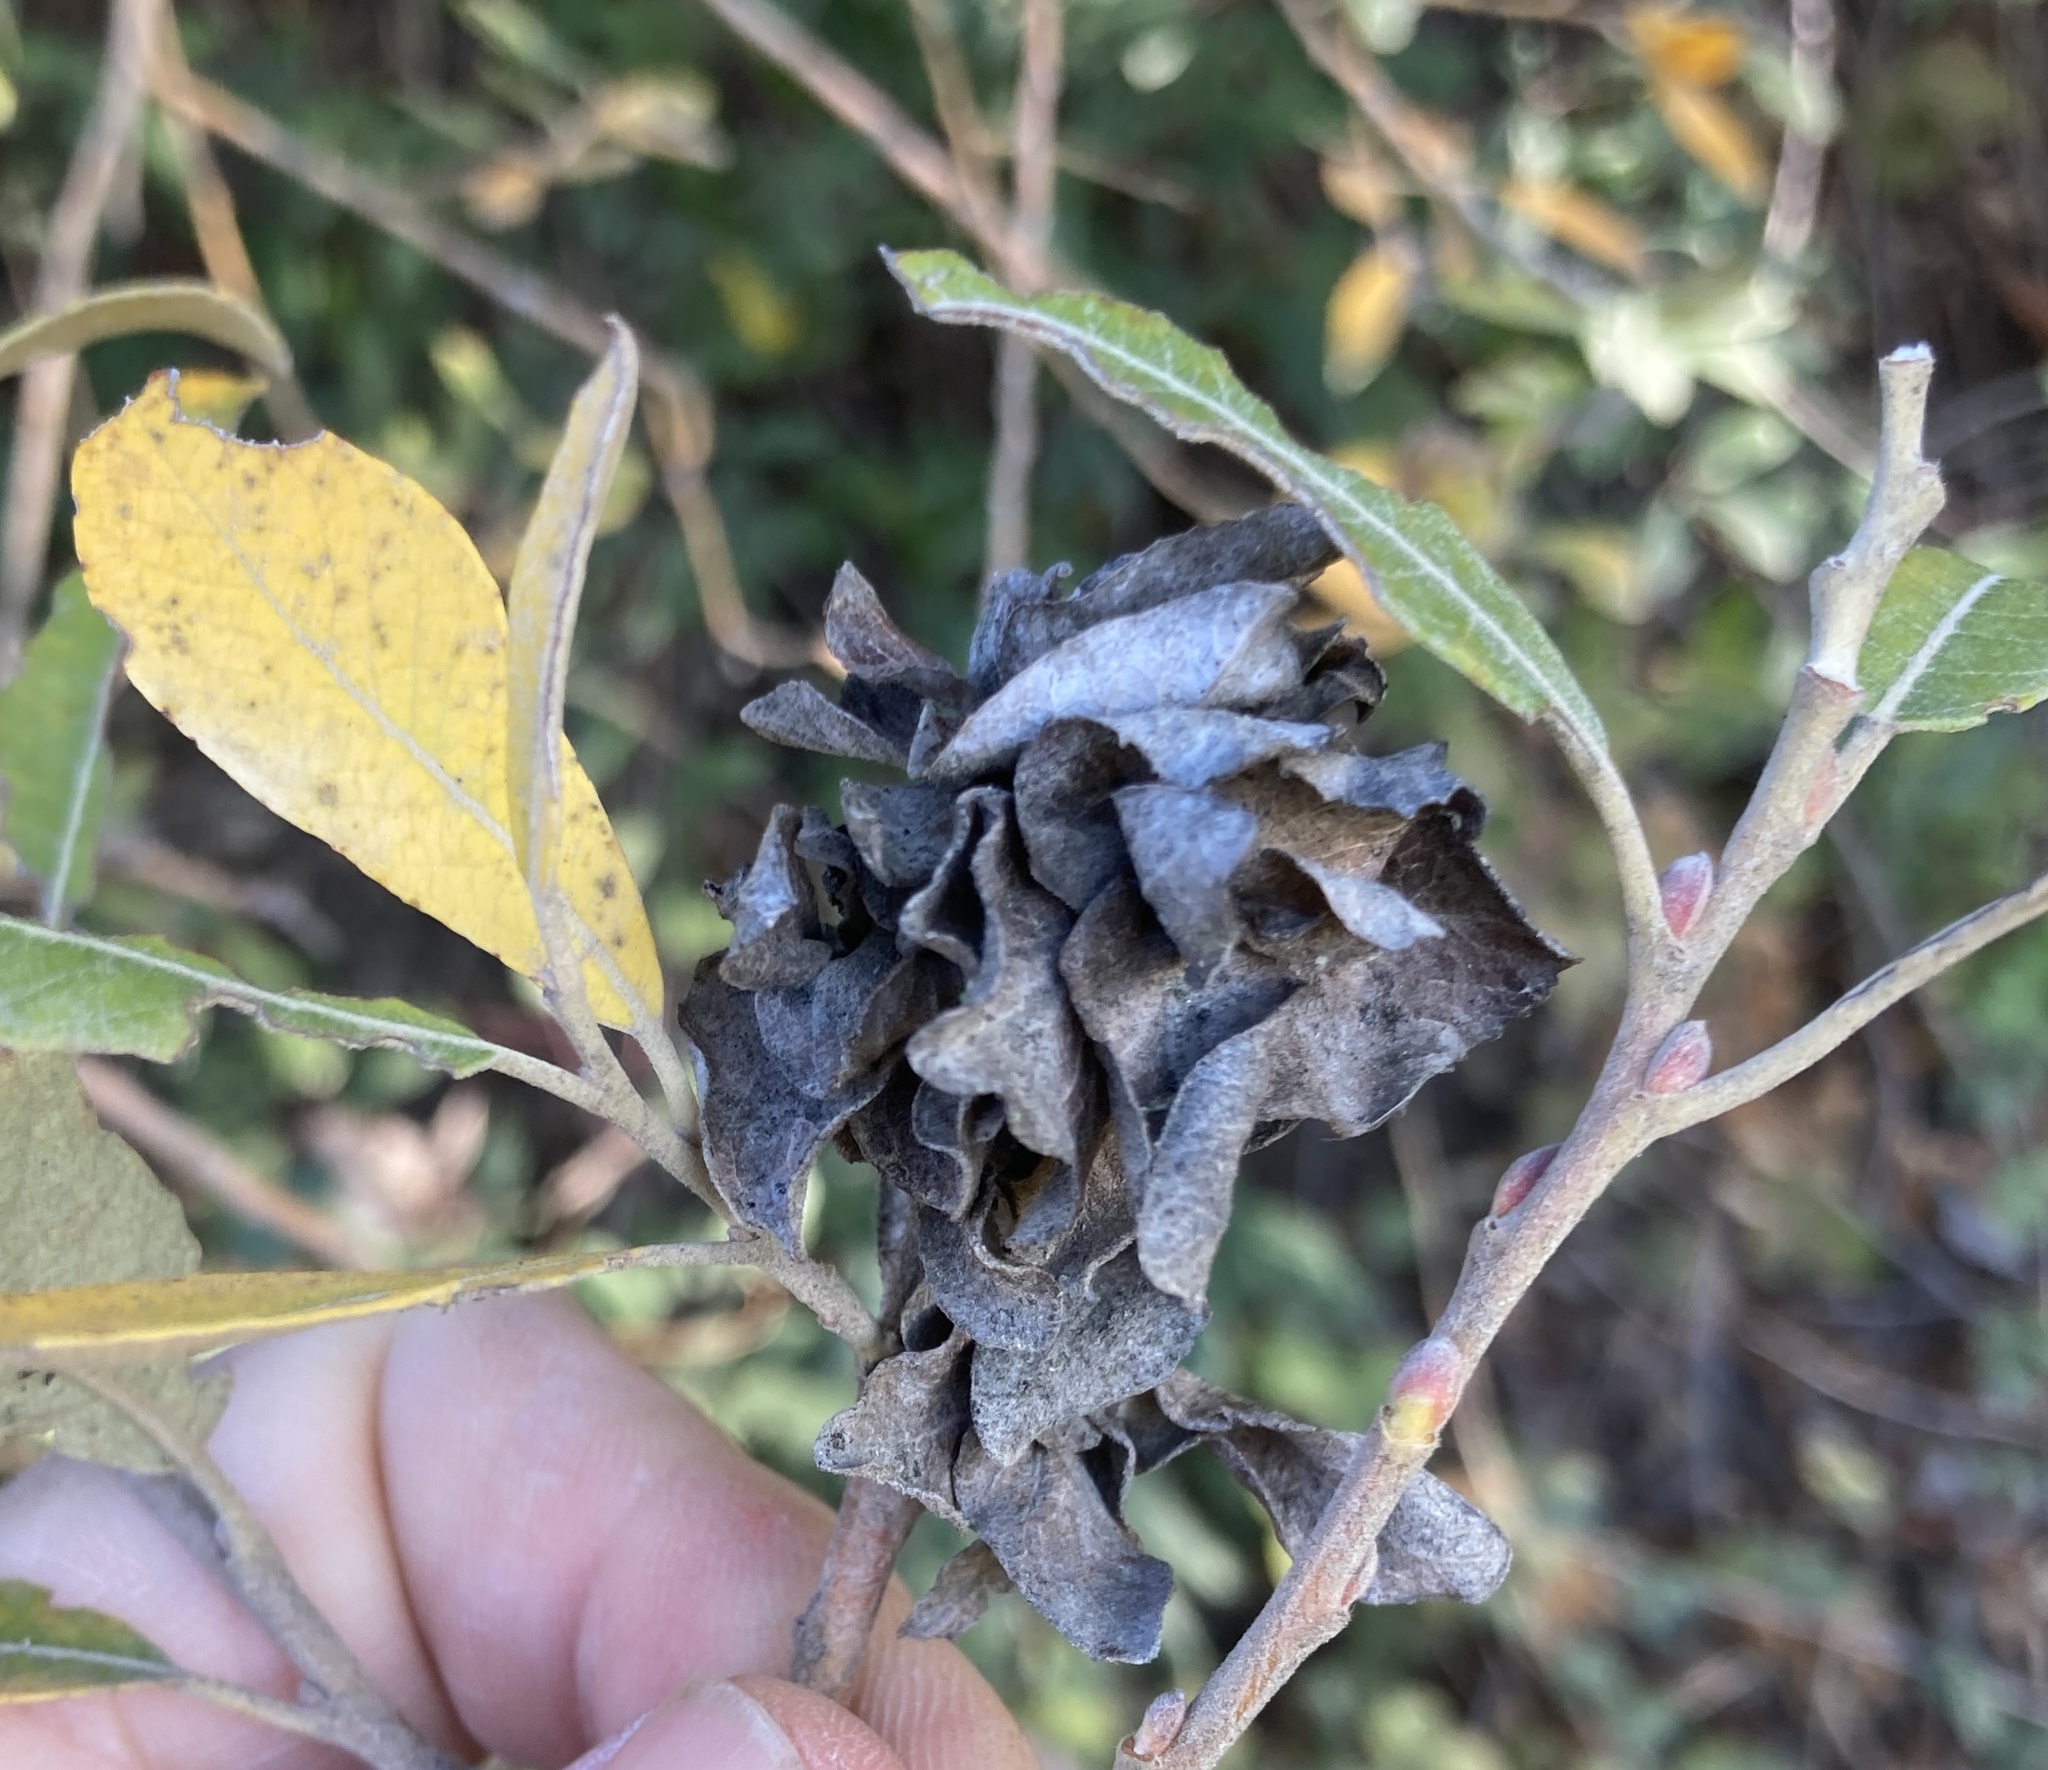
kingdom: Animalia
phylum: Arthropoda
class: Insecta
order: Diptera
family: Cecidomyiidae
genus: Rabdophaga
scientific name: Rabdophaga salicisbrassicoides
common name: Willow cabbagegall midge
